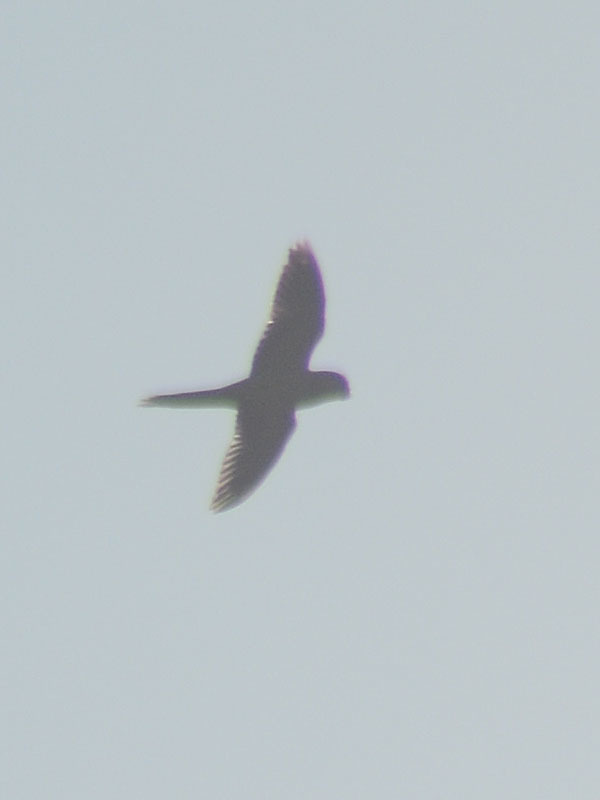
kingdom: Animalia
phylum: Chordata
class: Aves
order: Psittaciformes
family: Psittacidae
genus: Myiopsitta
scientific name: Myiopsitta monachus
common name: Monk parakeet
